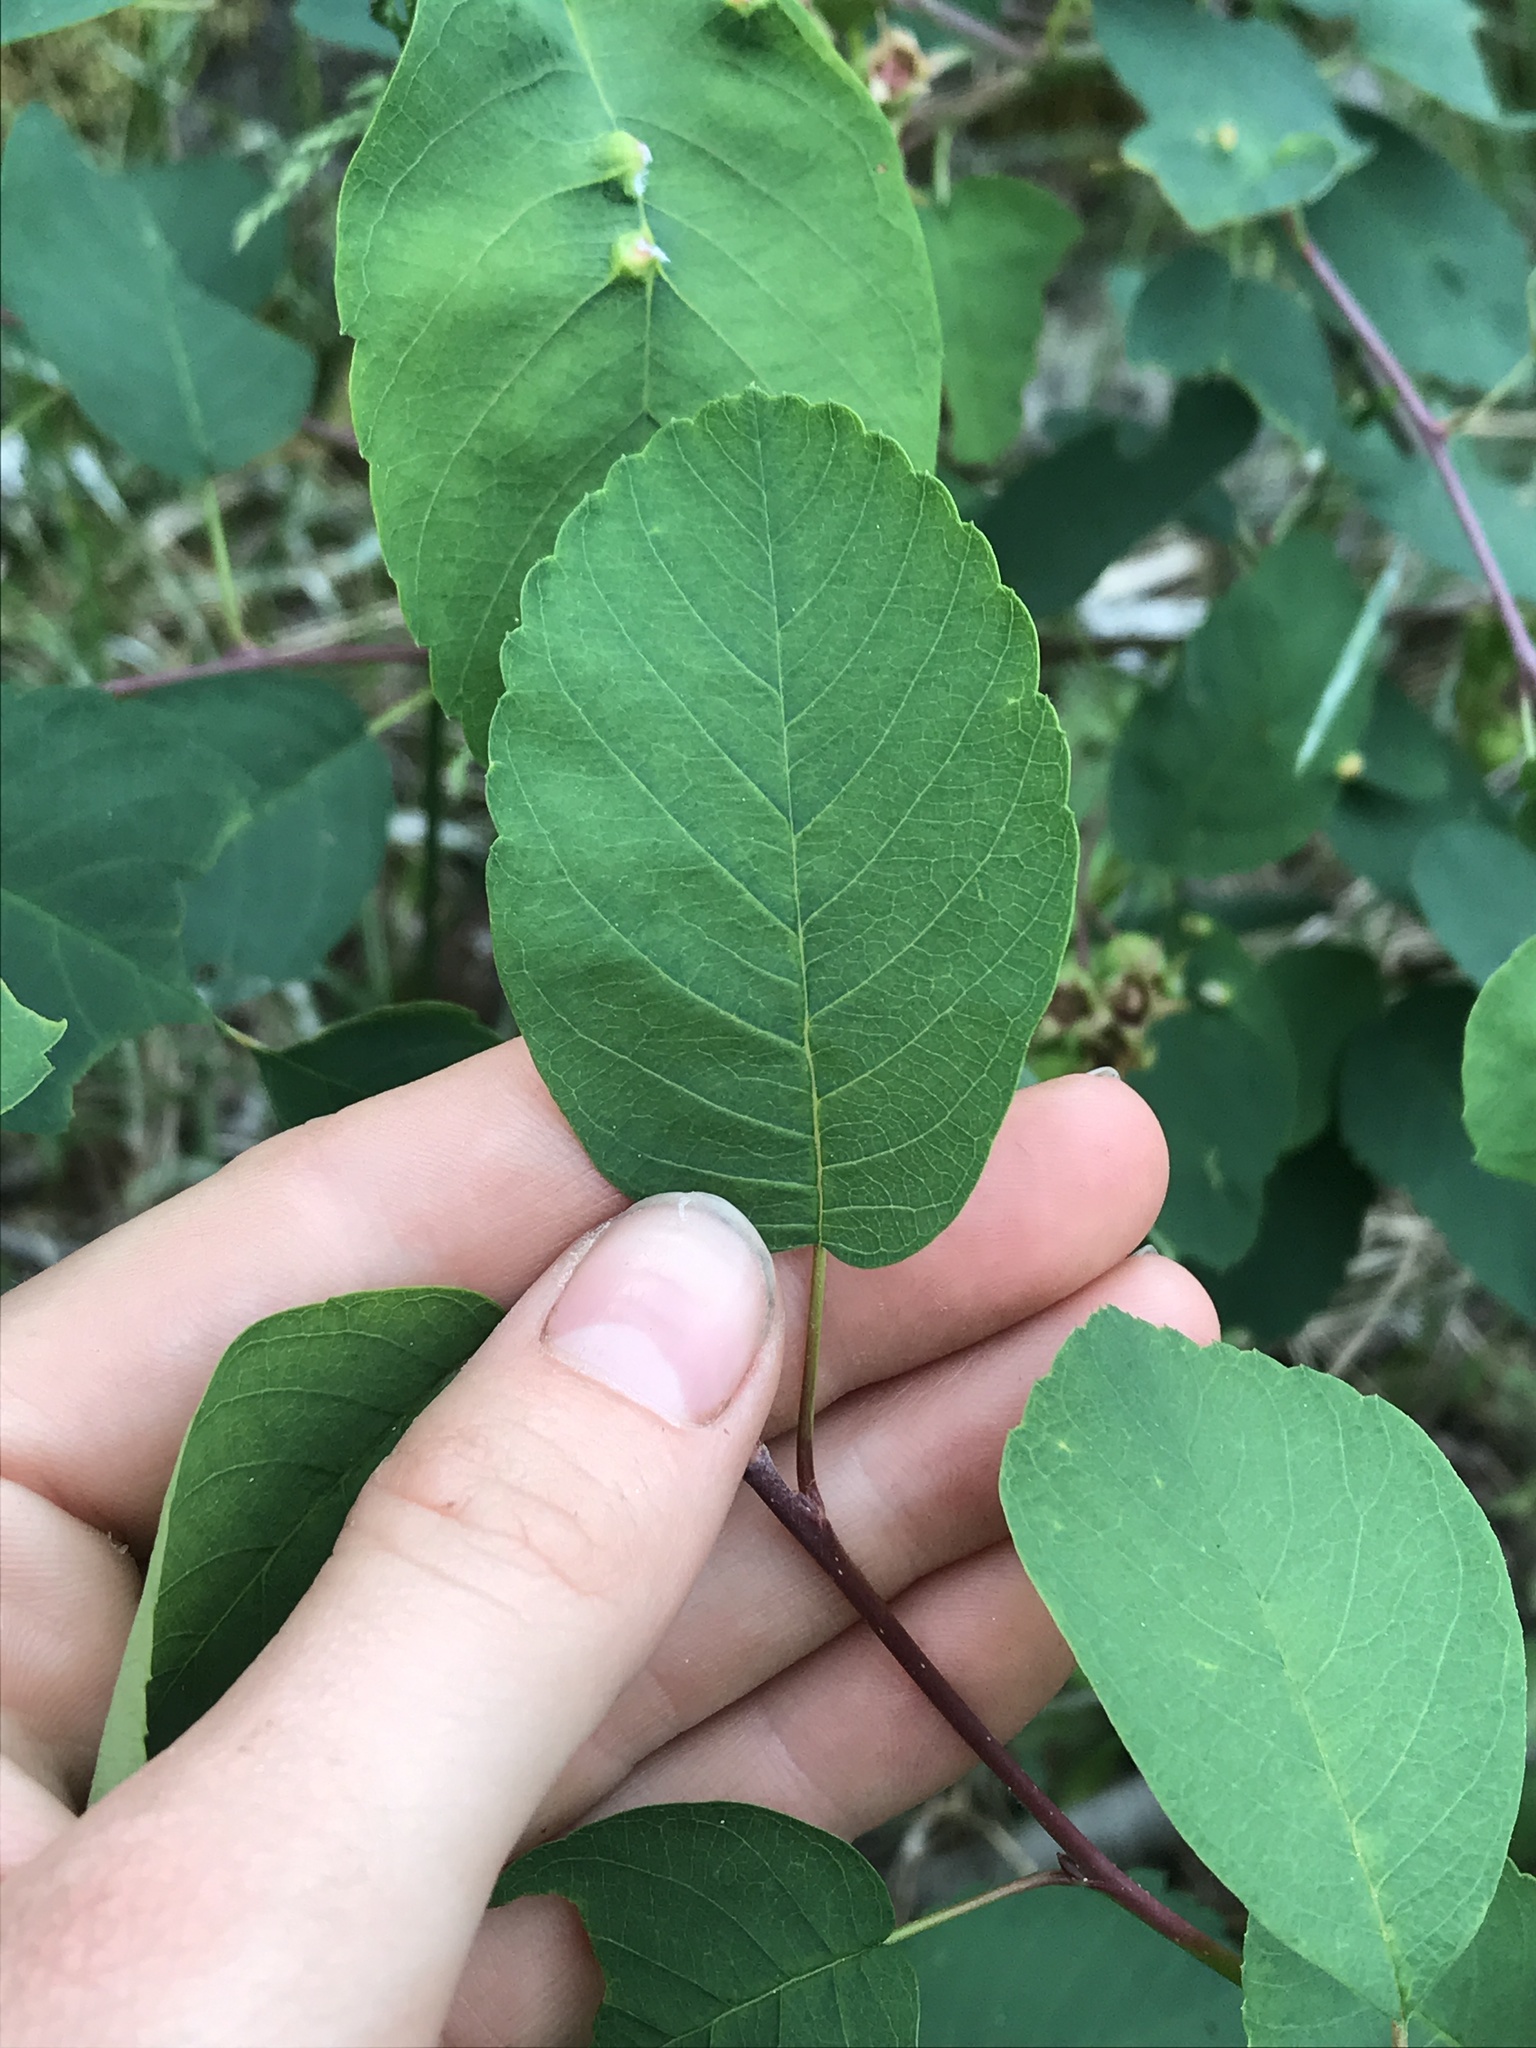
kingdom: Plantae
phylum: Tracheophyta
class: Magnoliopsida
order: Rosales
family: Rosaceae
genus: Amelanchier
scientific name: Amelanchier alnifolia
